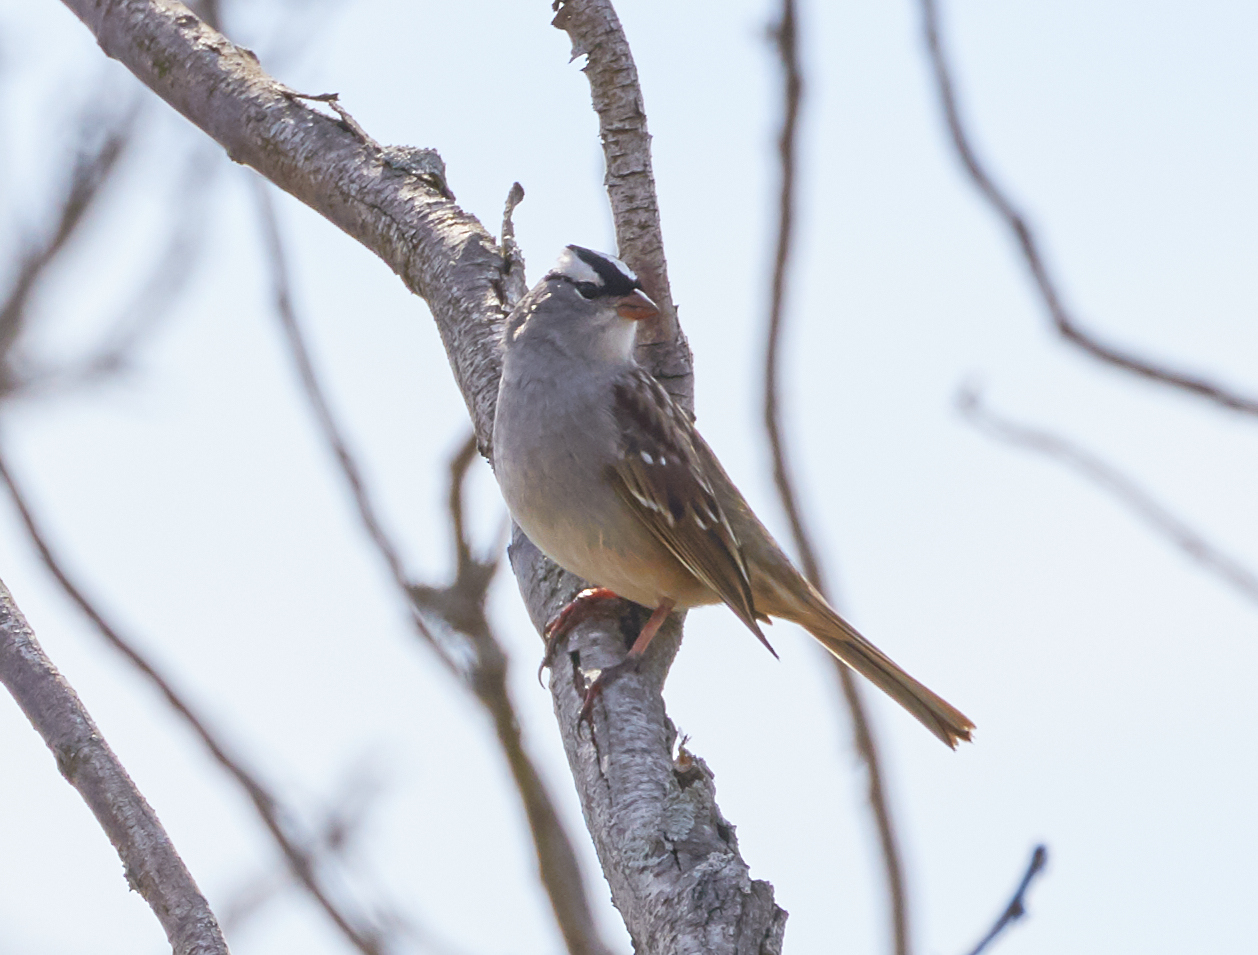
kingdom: Animalia
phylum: Chordata
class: Aves
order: Passeriformes
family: Passerellidae
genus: Zonotrichia
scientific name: Zonotrichia leucophrys
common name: White-crowned sparrow
